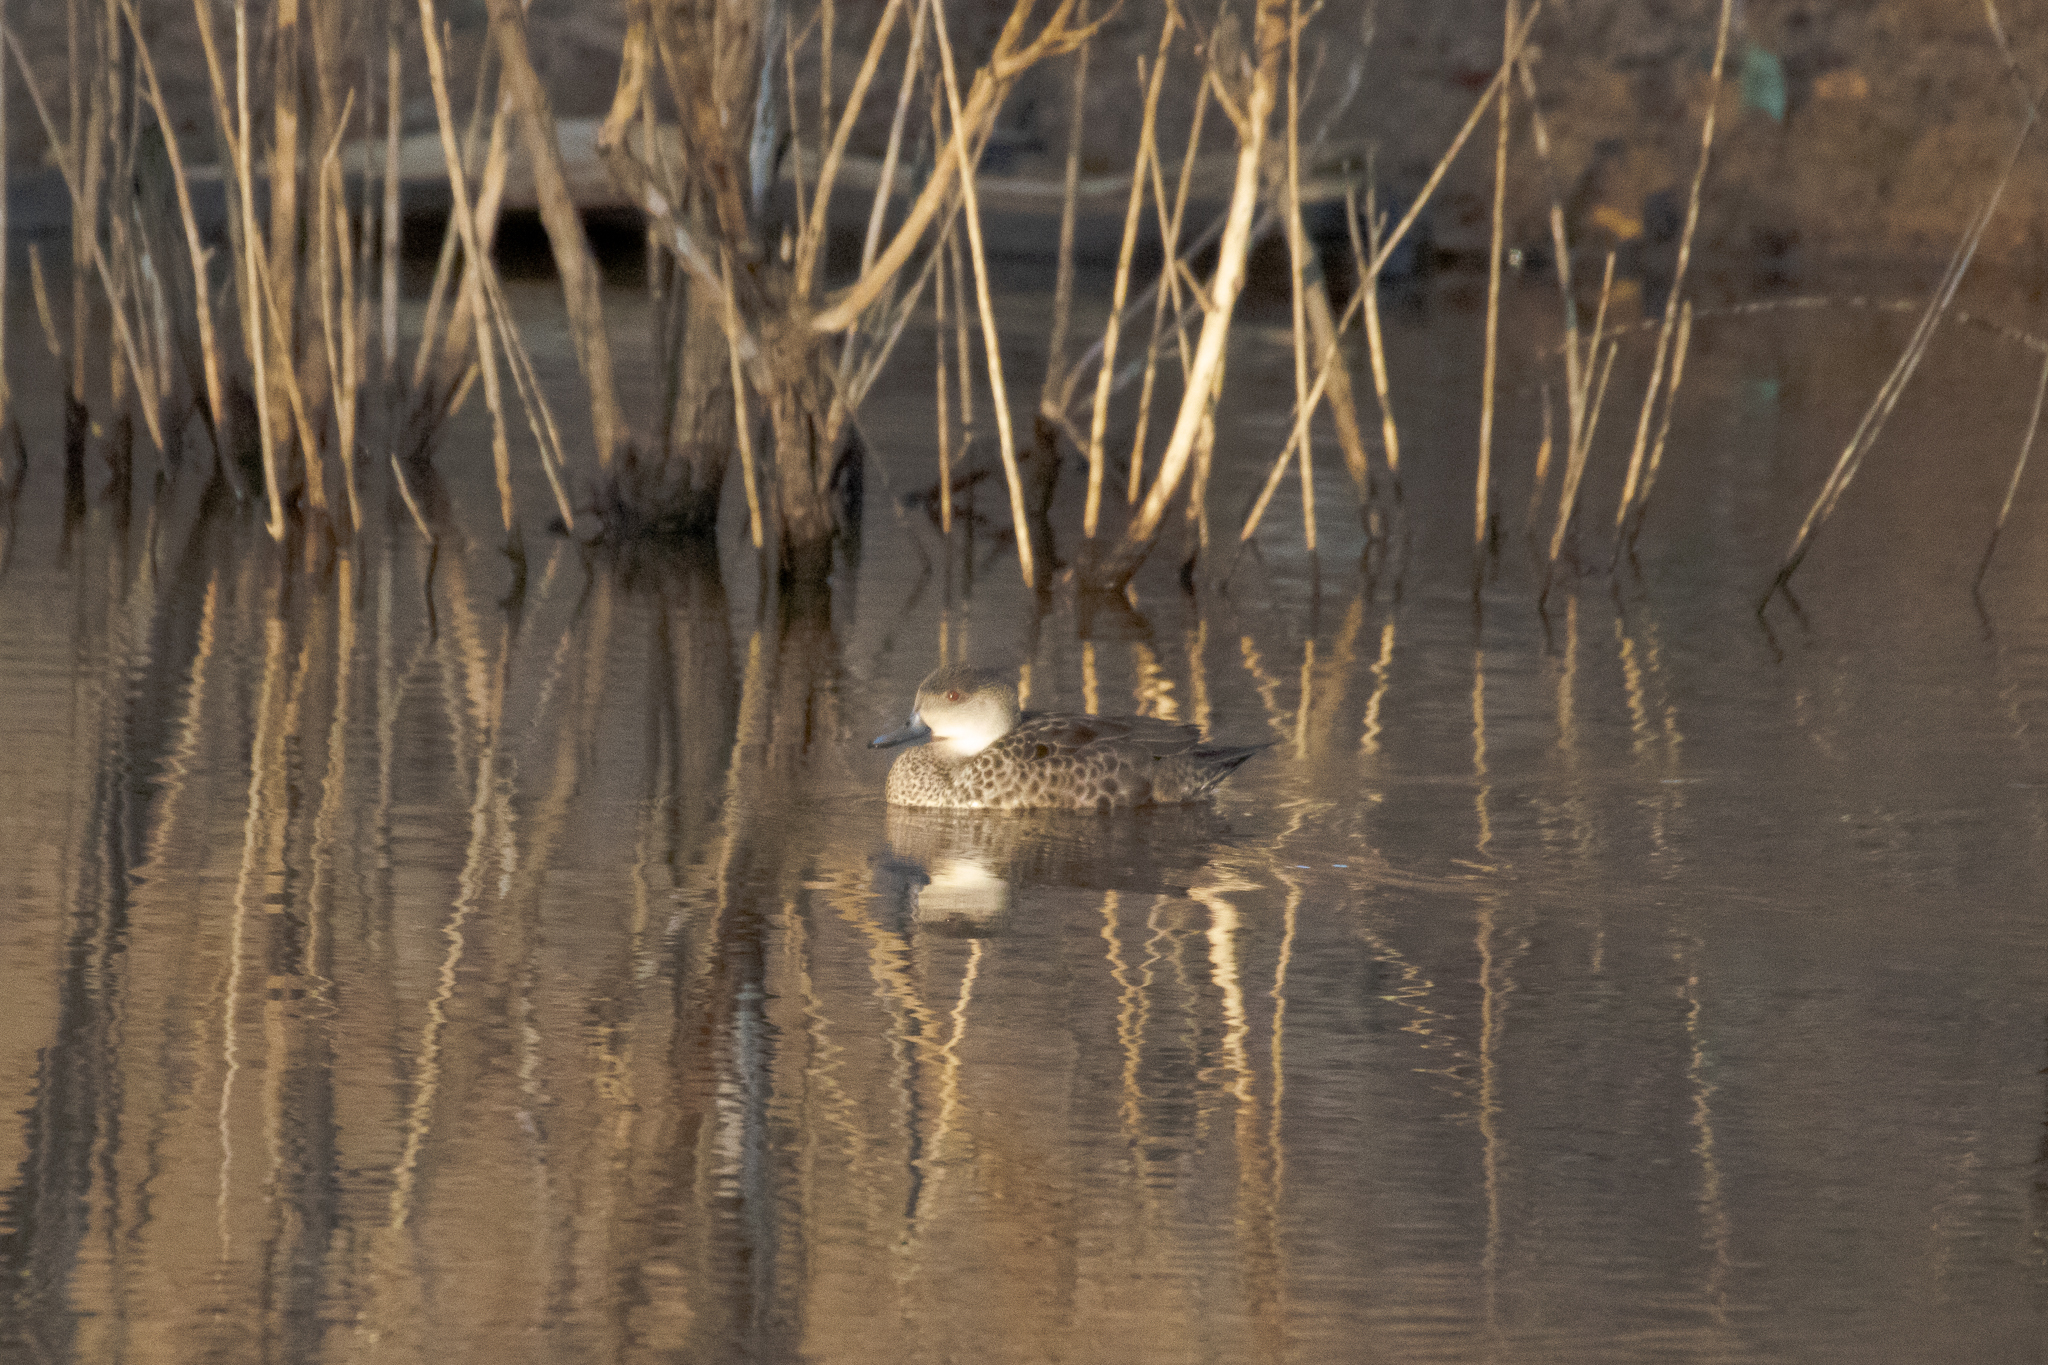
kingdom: Animalia
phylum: Chordata
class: Aves
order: Anseriformes
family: Anatidae
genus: Anas
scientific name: Anas gracilis
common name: Grey teal
